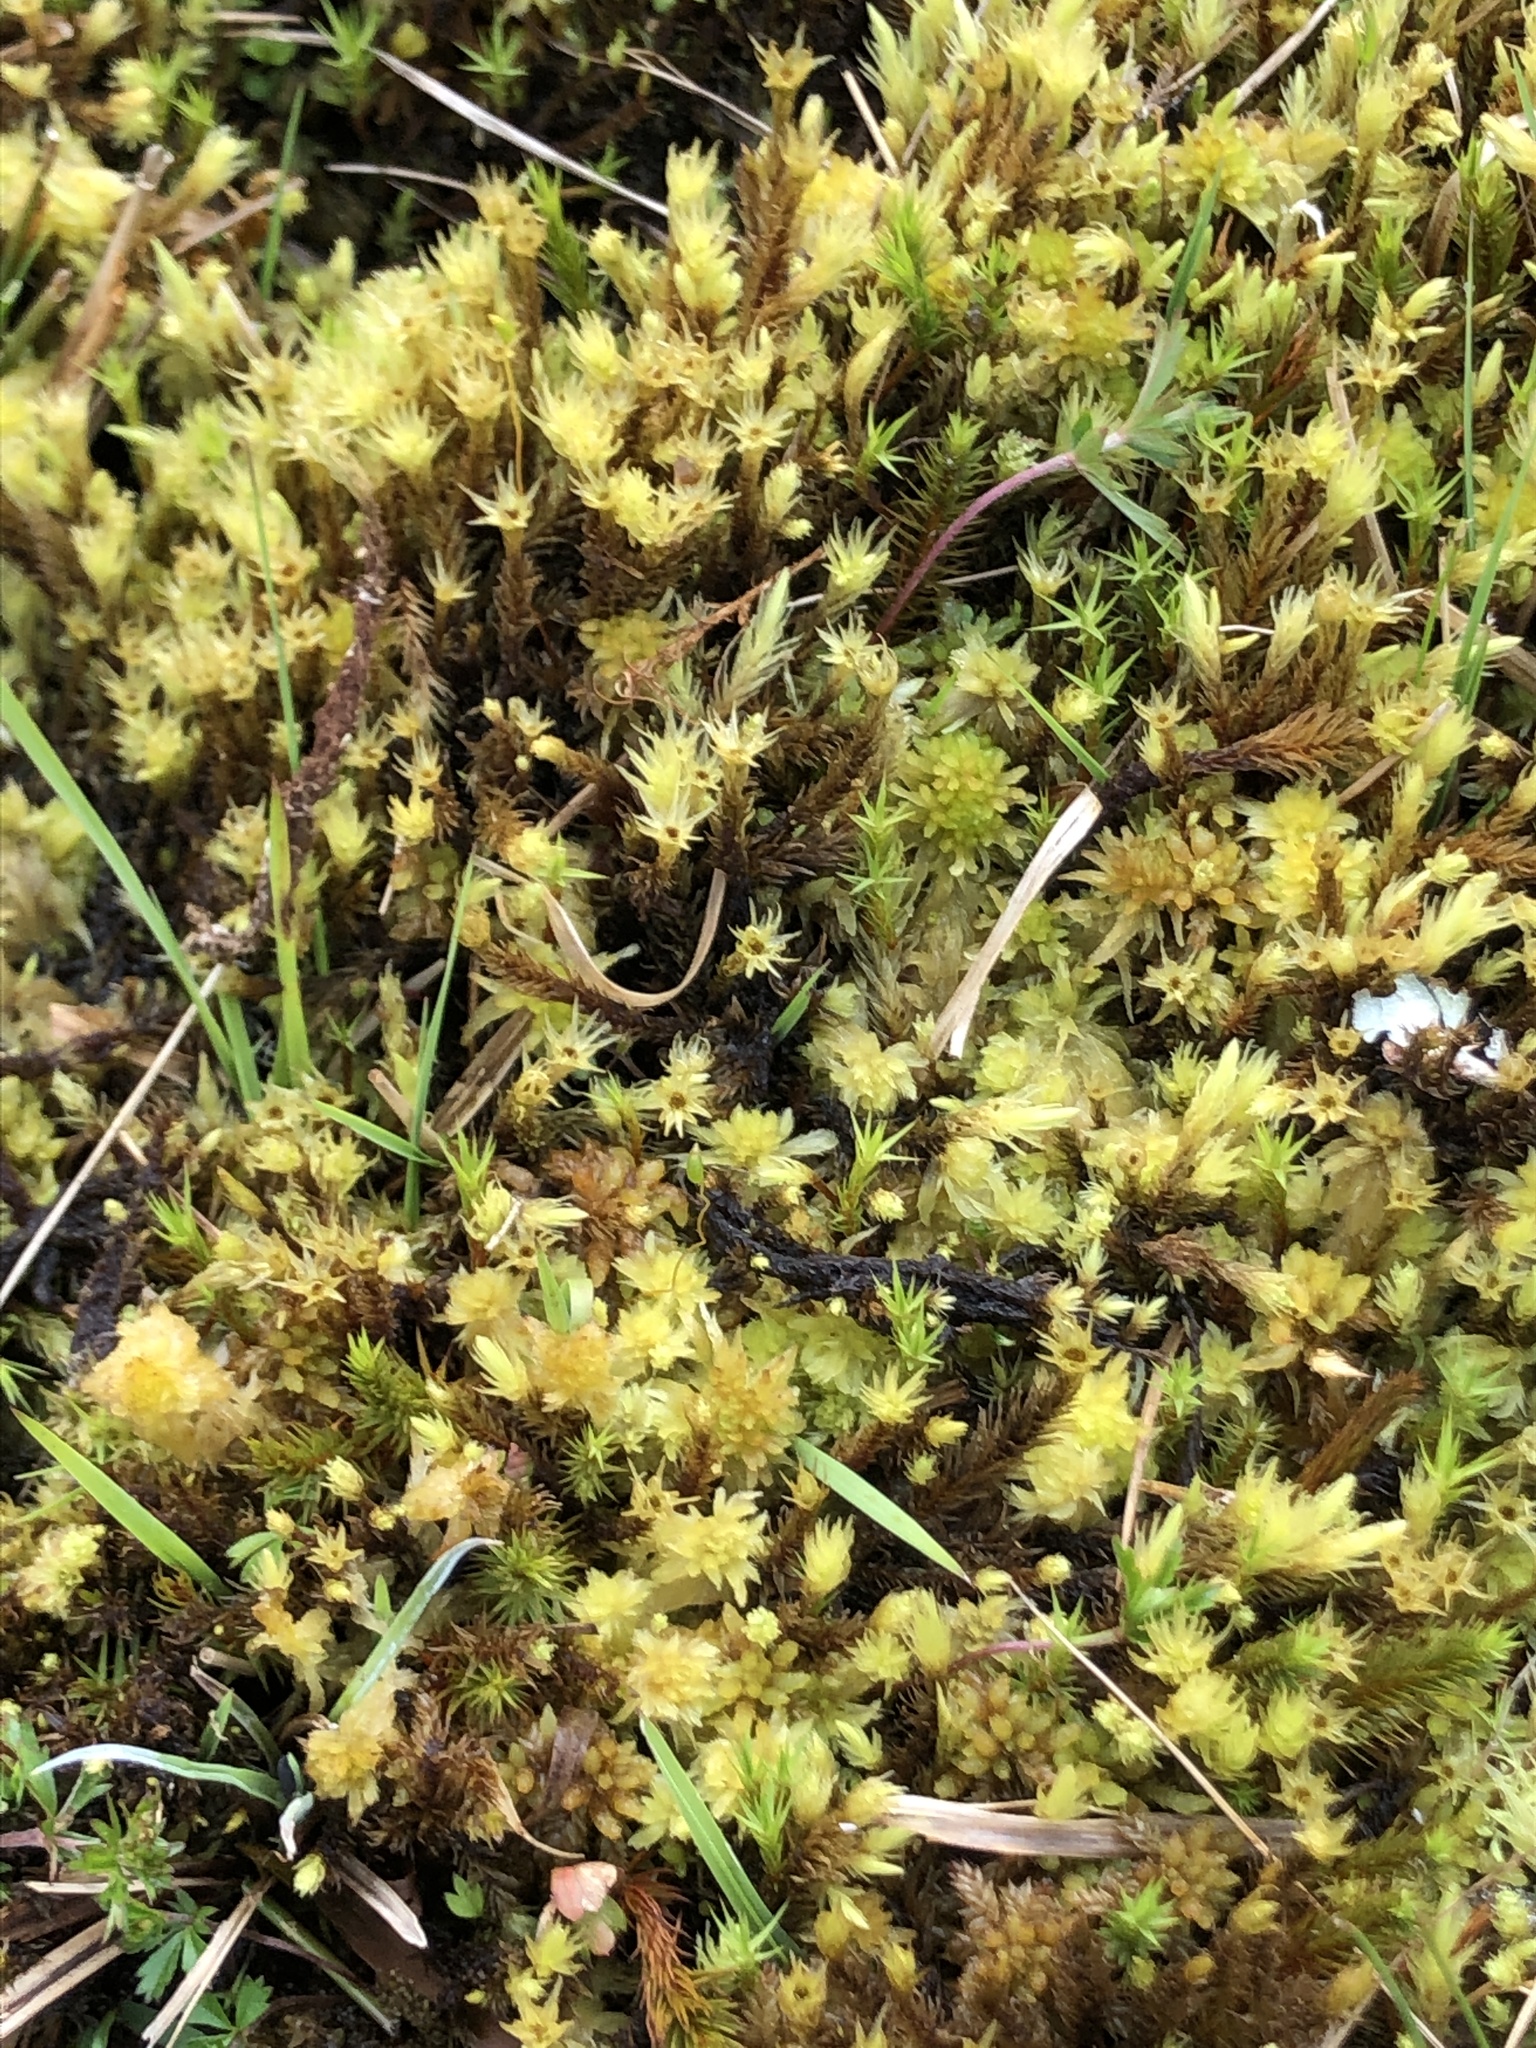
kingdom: Plantae
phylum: Bryophyta
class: Bryopsida
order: Aulacomniales
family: Aulacomniaceae
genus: Aulacomnium
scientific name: Aulacomnium palustre
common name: Bog groove-moss
